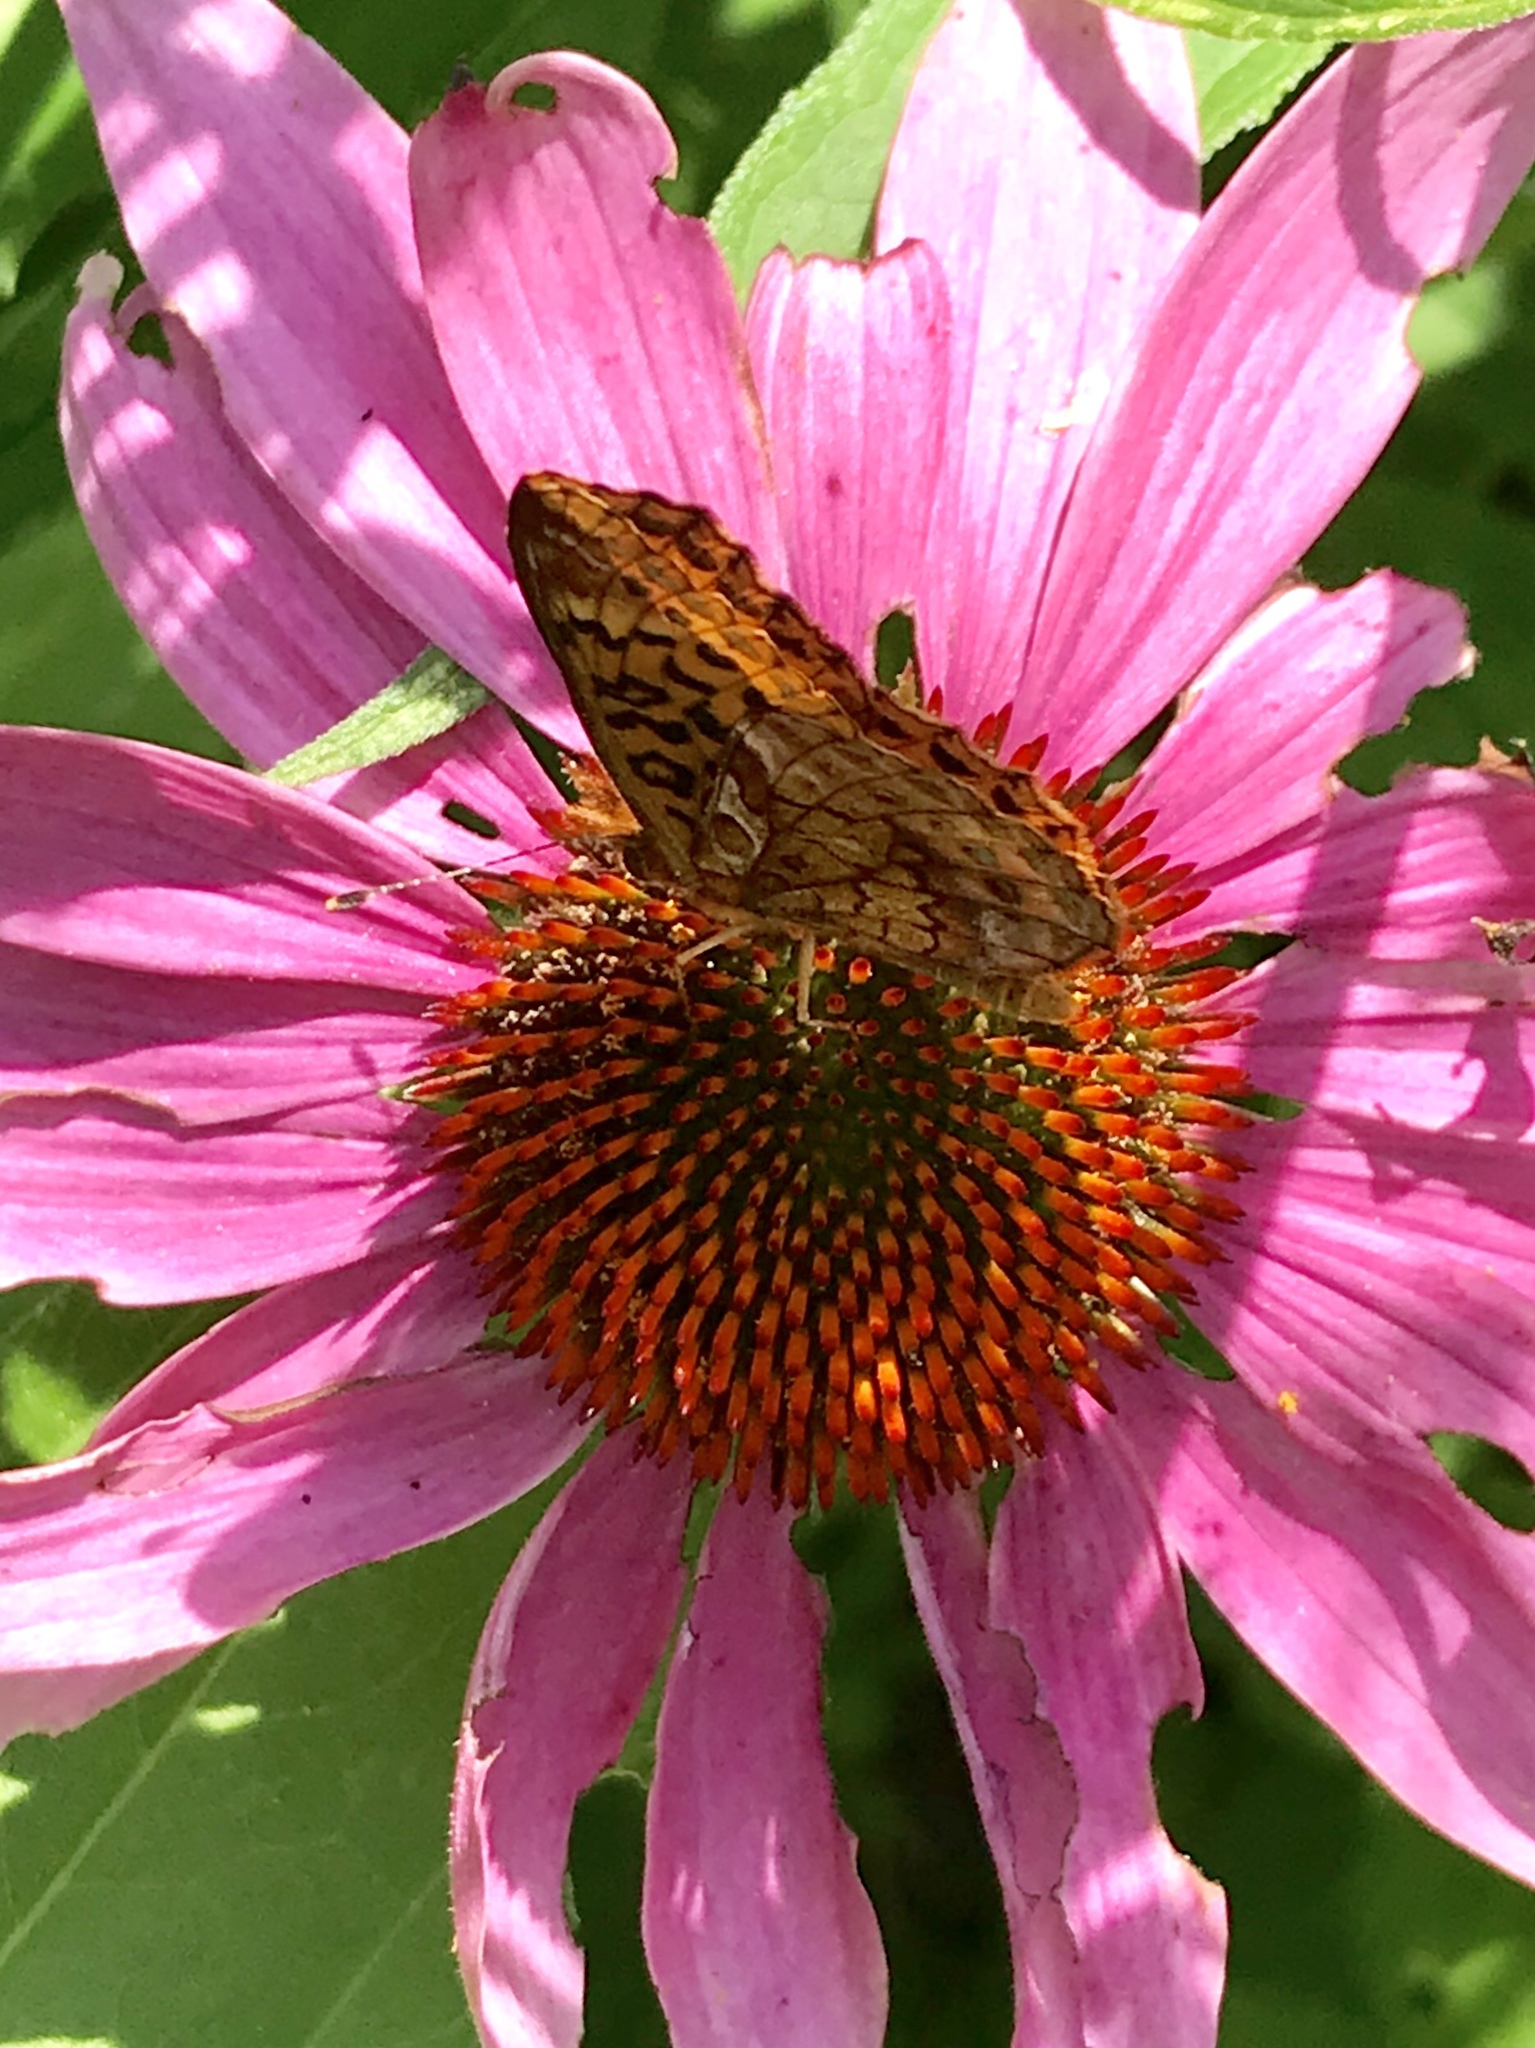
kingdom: Animalia
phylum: Arthropoda
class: Insecta
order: Lepidoptera
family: Nymphalidae
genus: Clossiana
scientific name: Clossiana toddi
